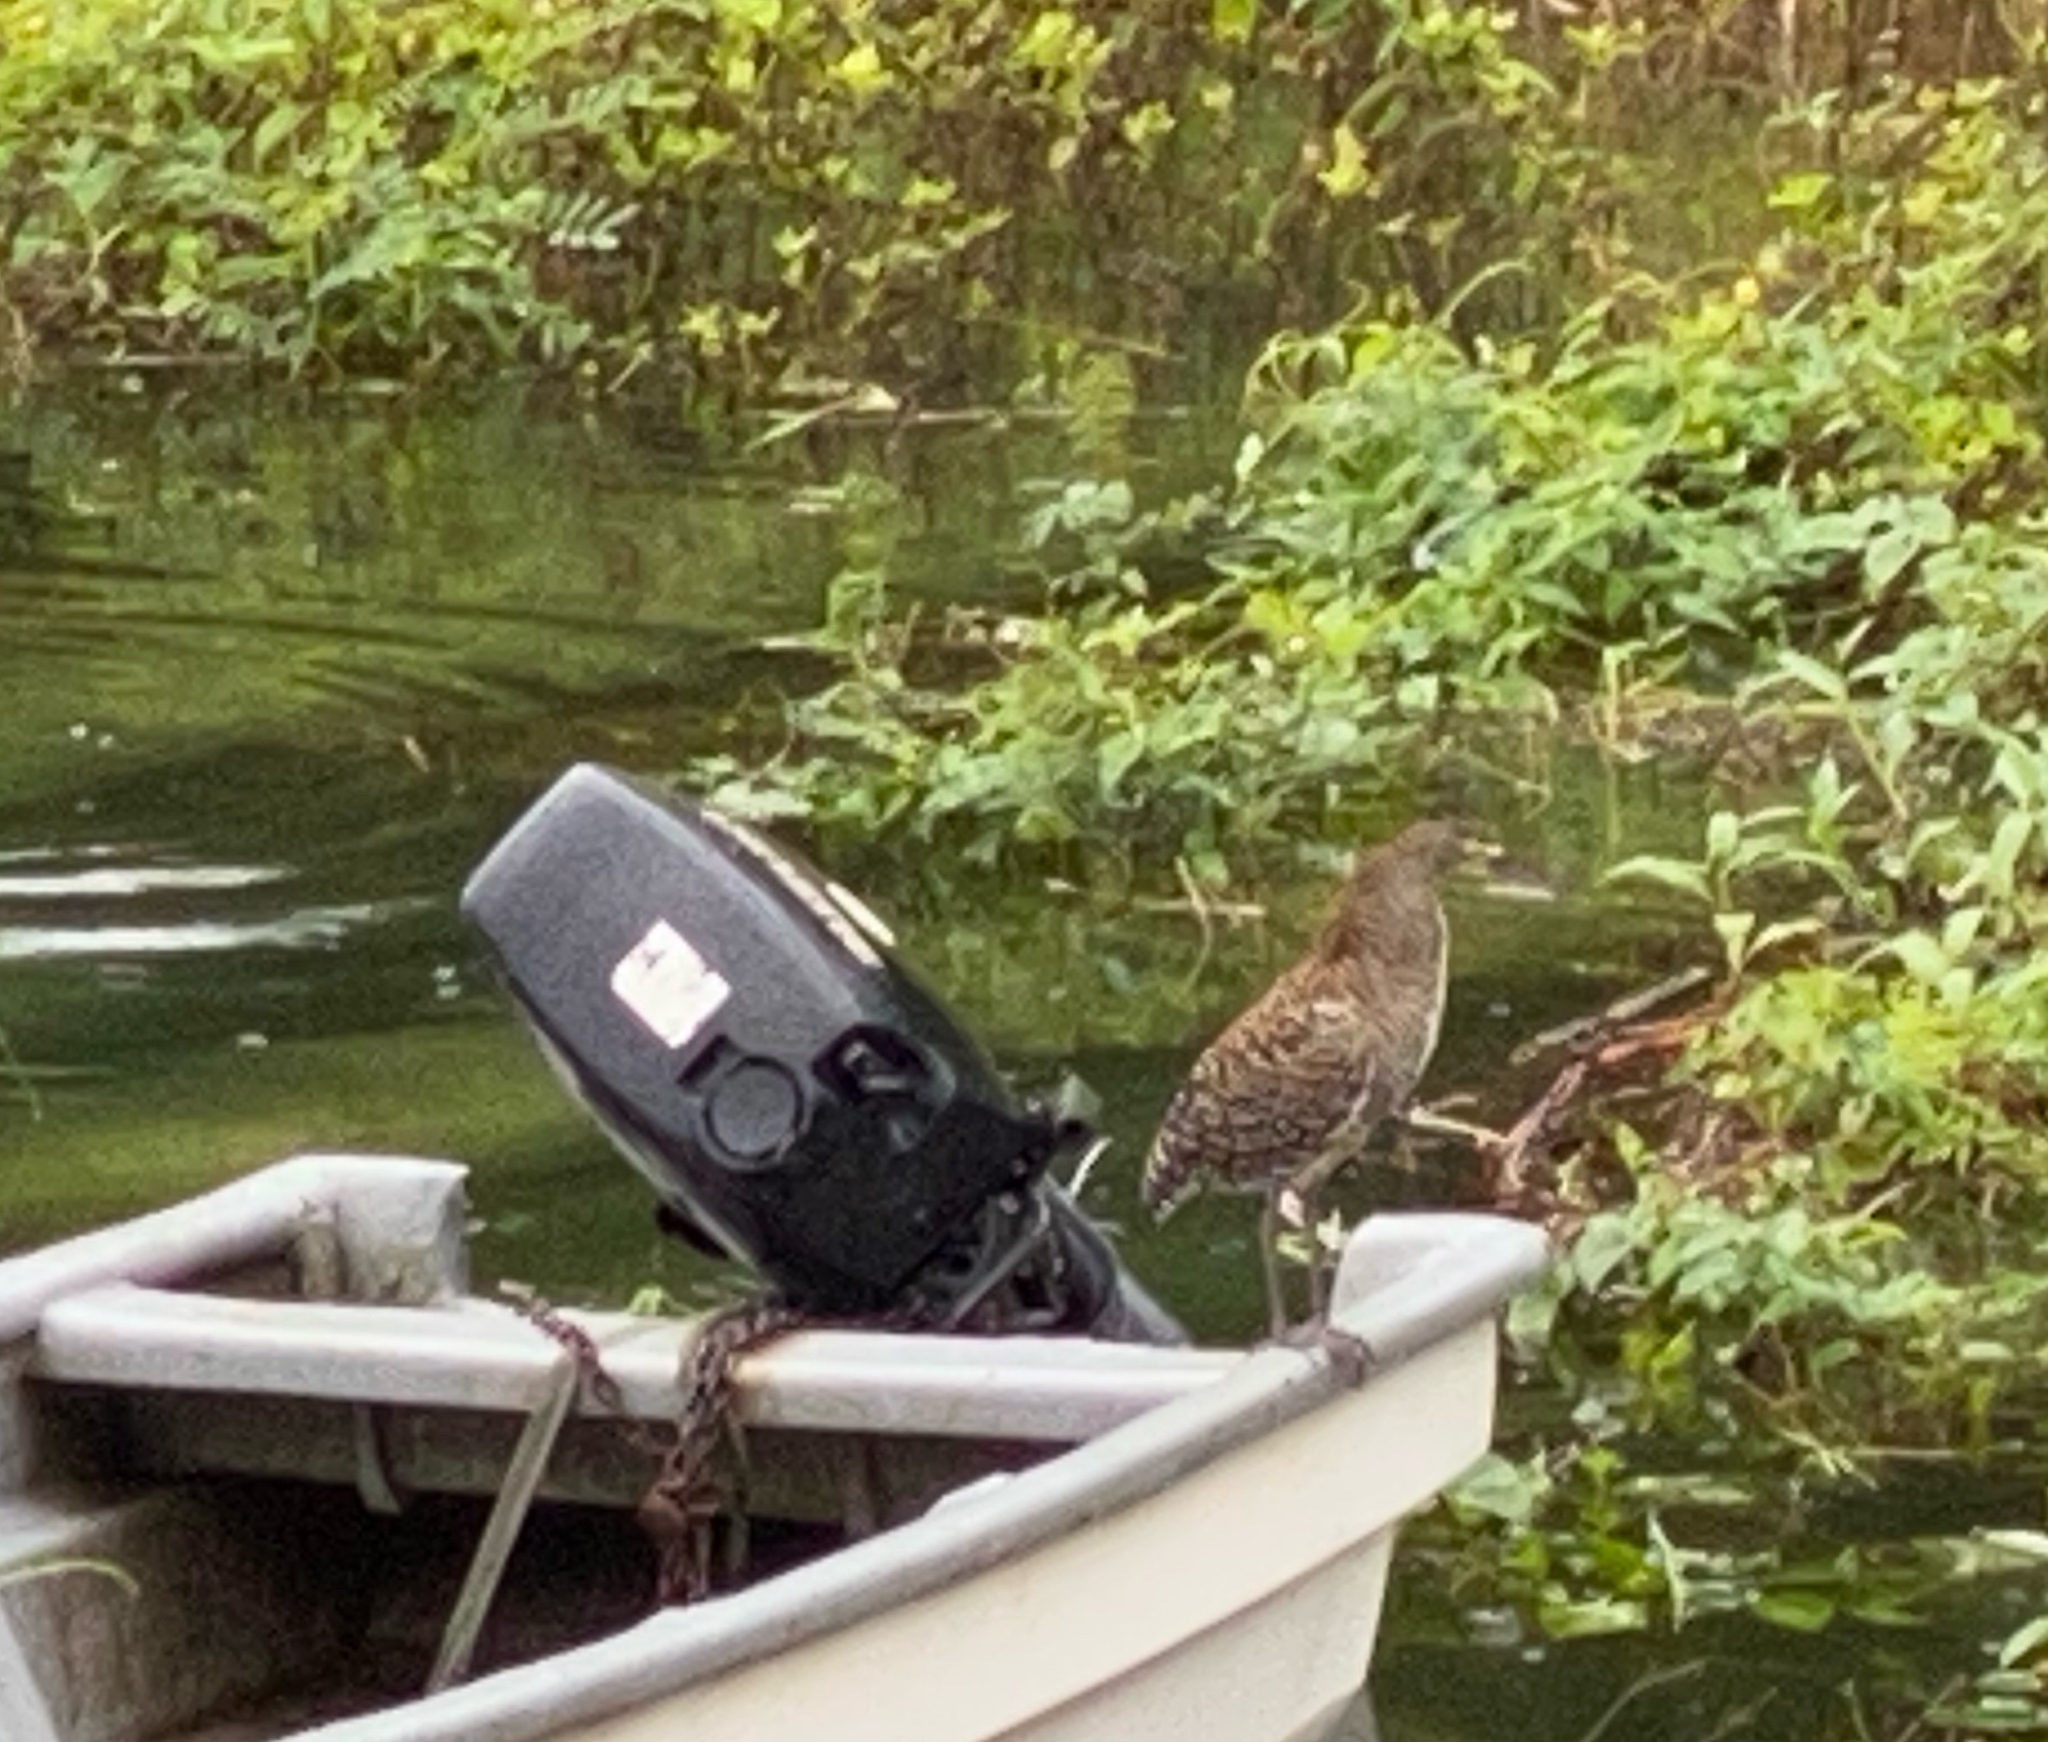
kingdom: Animalia
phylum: Chordata
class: Aves
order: Pelecaniformes
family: Ardeidae
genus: Tigrisoma
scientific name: Tigrisoma mexicanum
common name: Bare-throated tiger-heron
